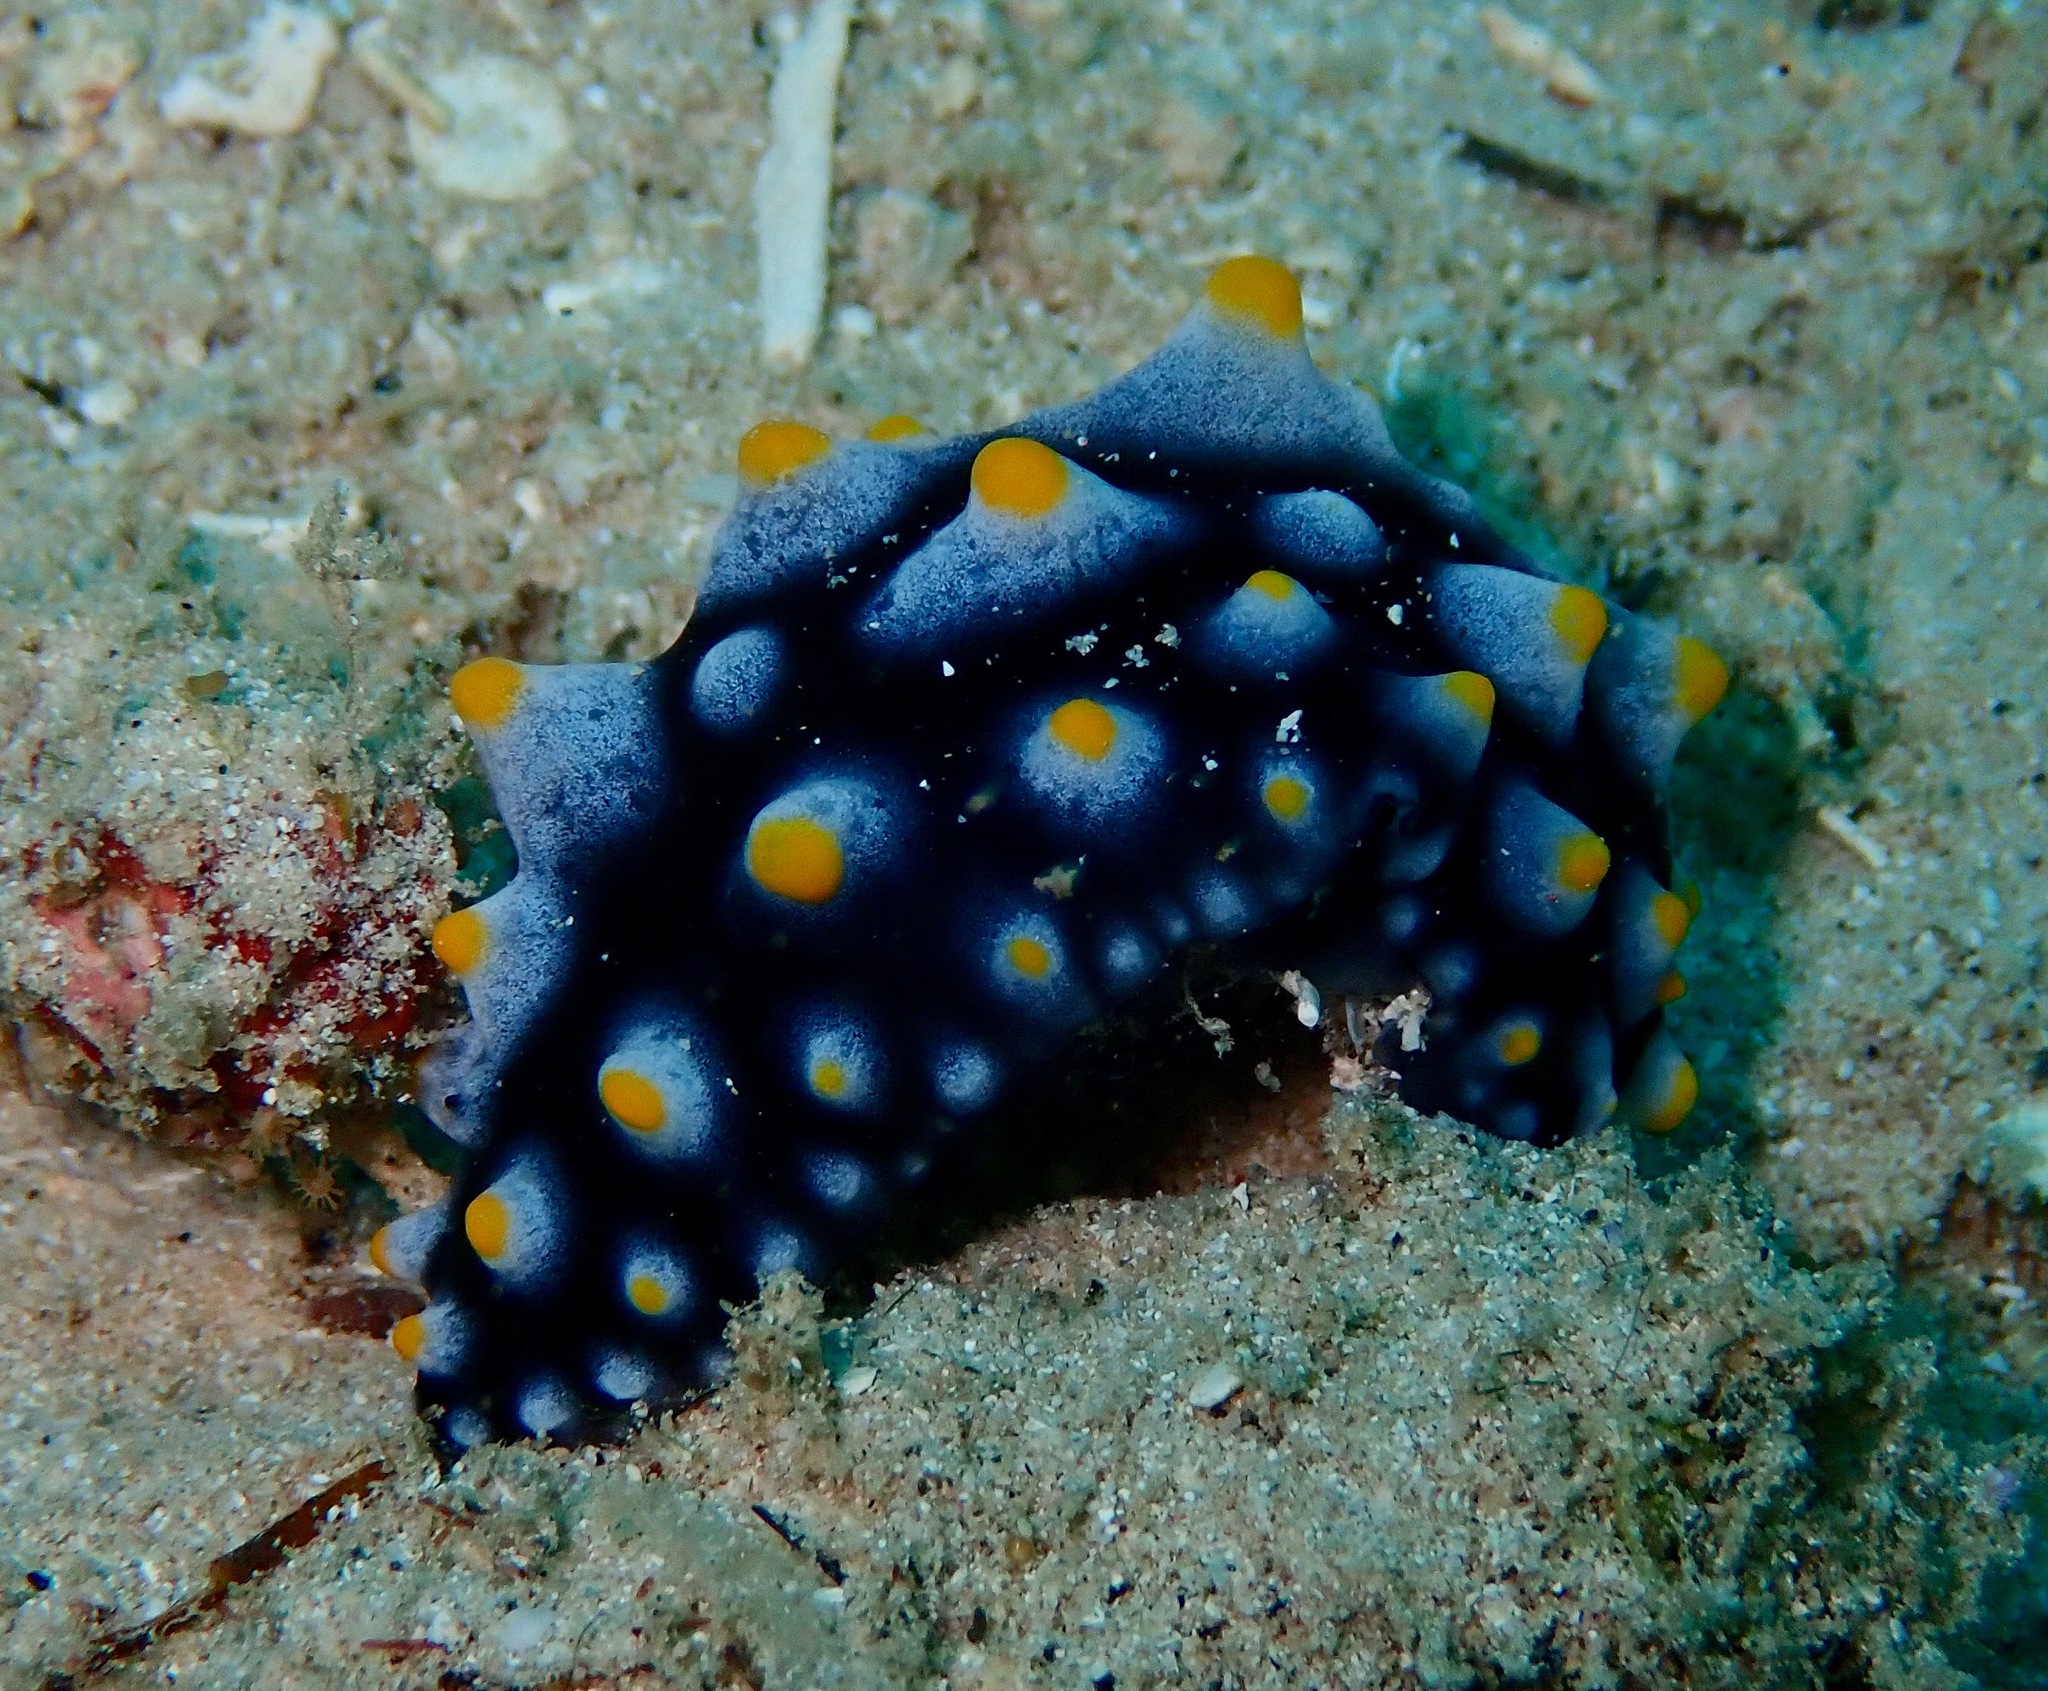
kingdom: Animalia
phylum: Mollusca
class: Gastropoda
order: Nudibranchia
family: Phyllidiidae
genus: Phyllidia
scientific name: Phyllidia carlsonhoffi
